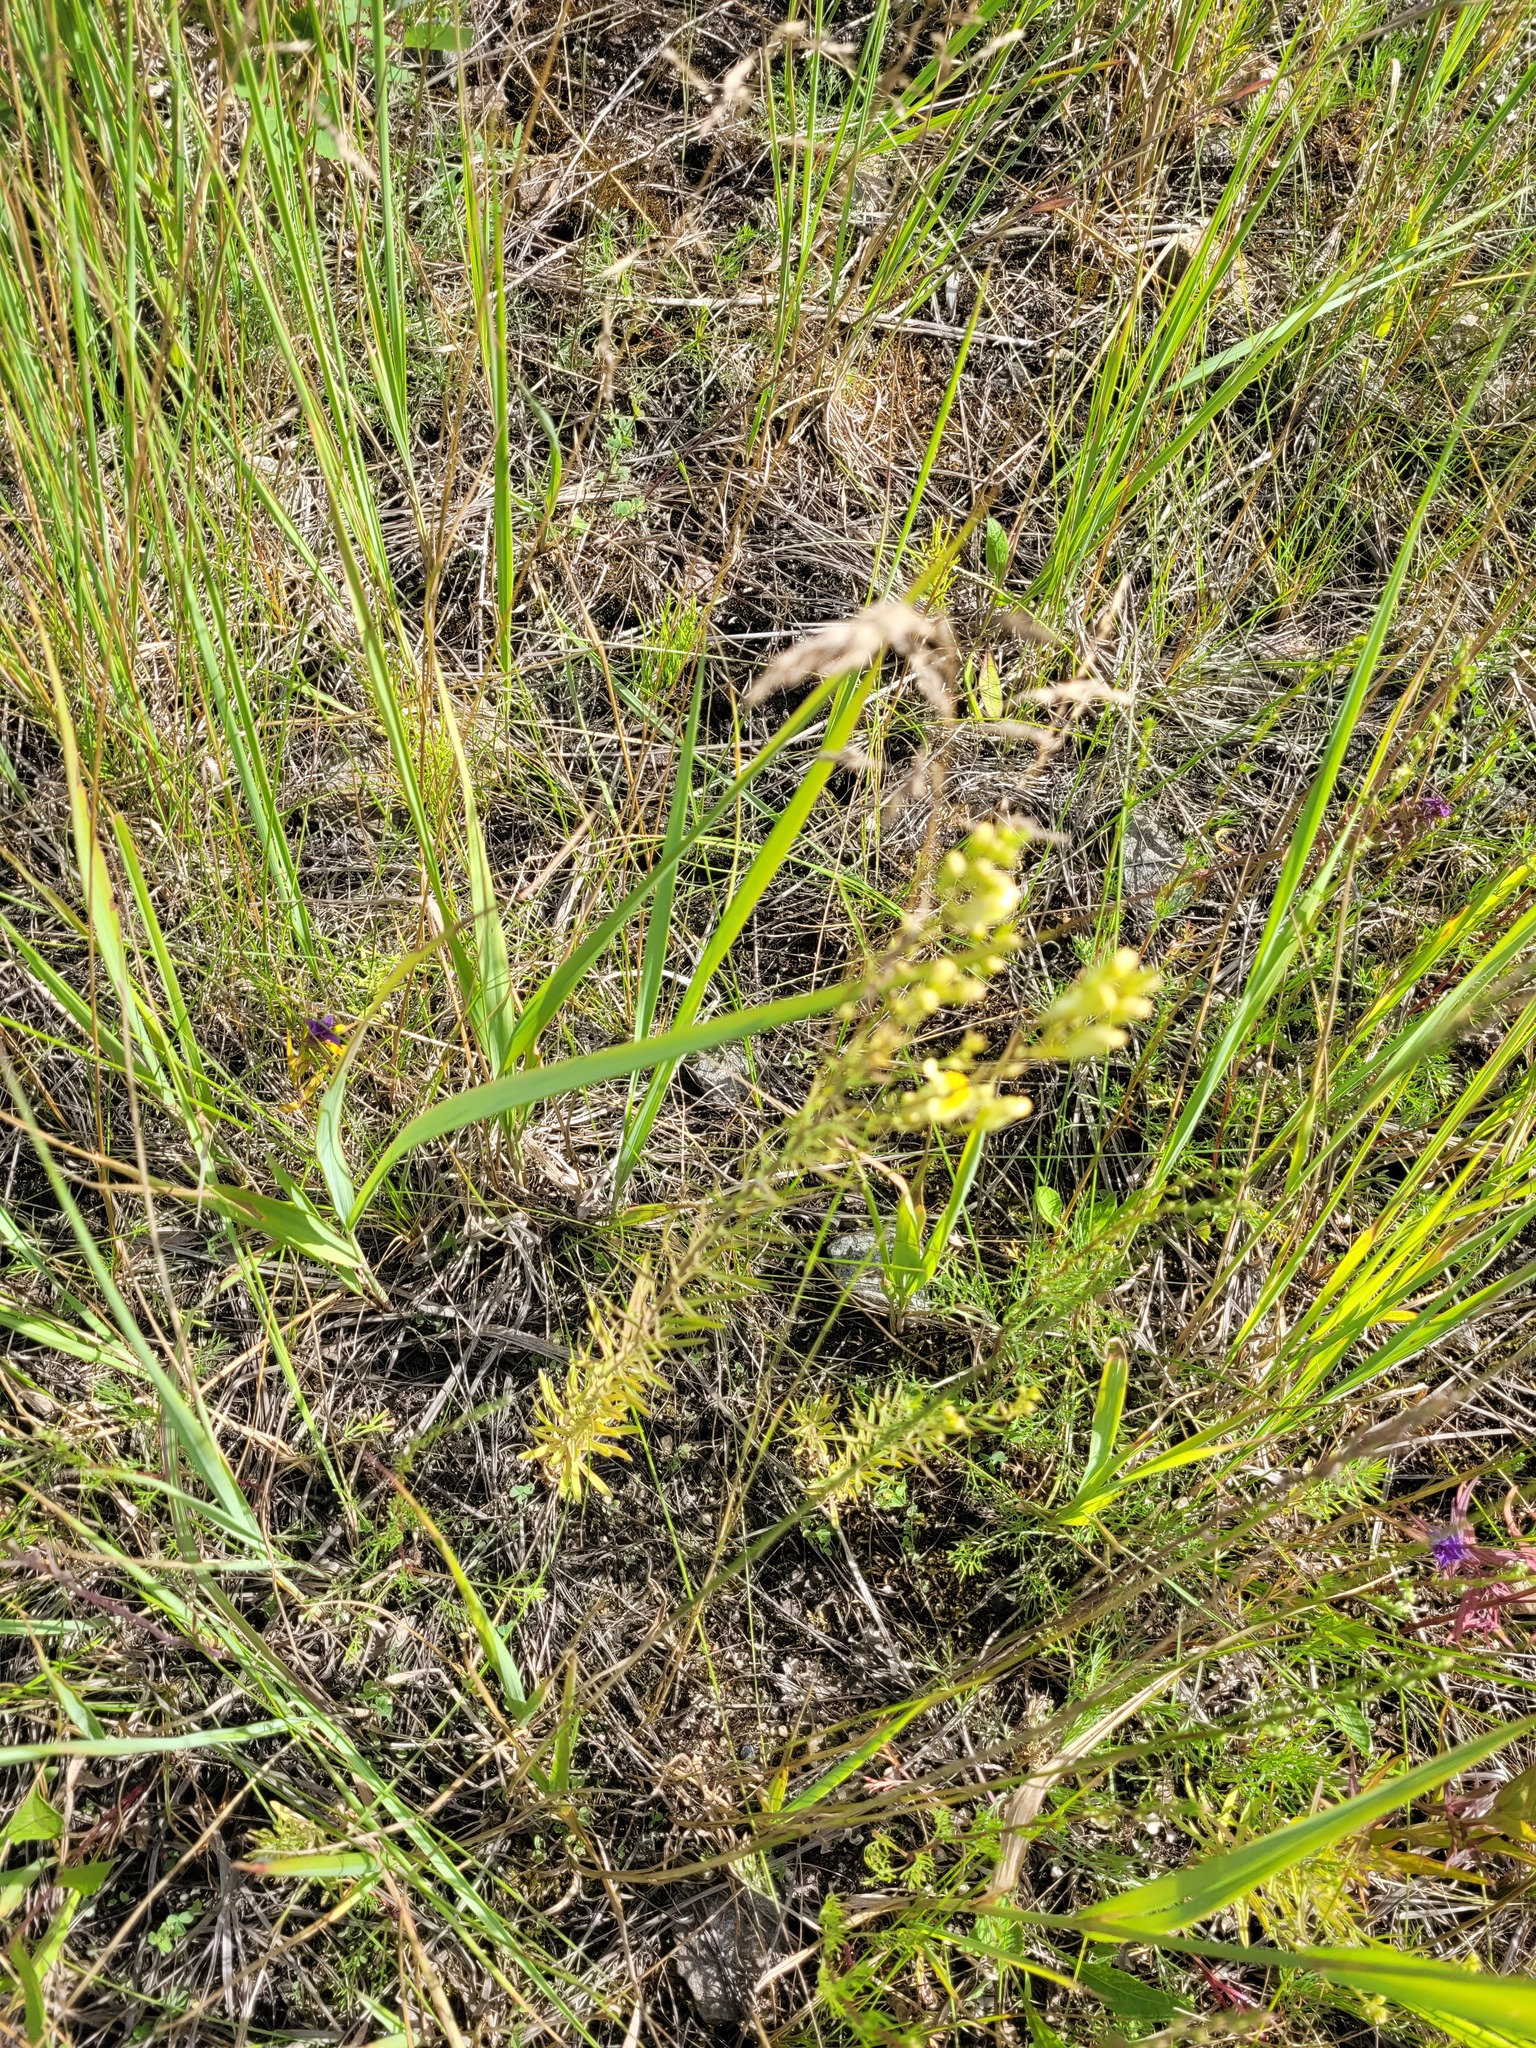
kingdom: Plantae
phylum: Tracheophyta
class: Magnoliopsida
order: Lamiales
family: Plantaginaceae
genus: Linaria
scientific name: Linaria vulgaris
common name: Butter and eggs
